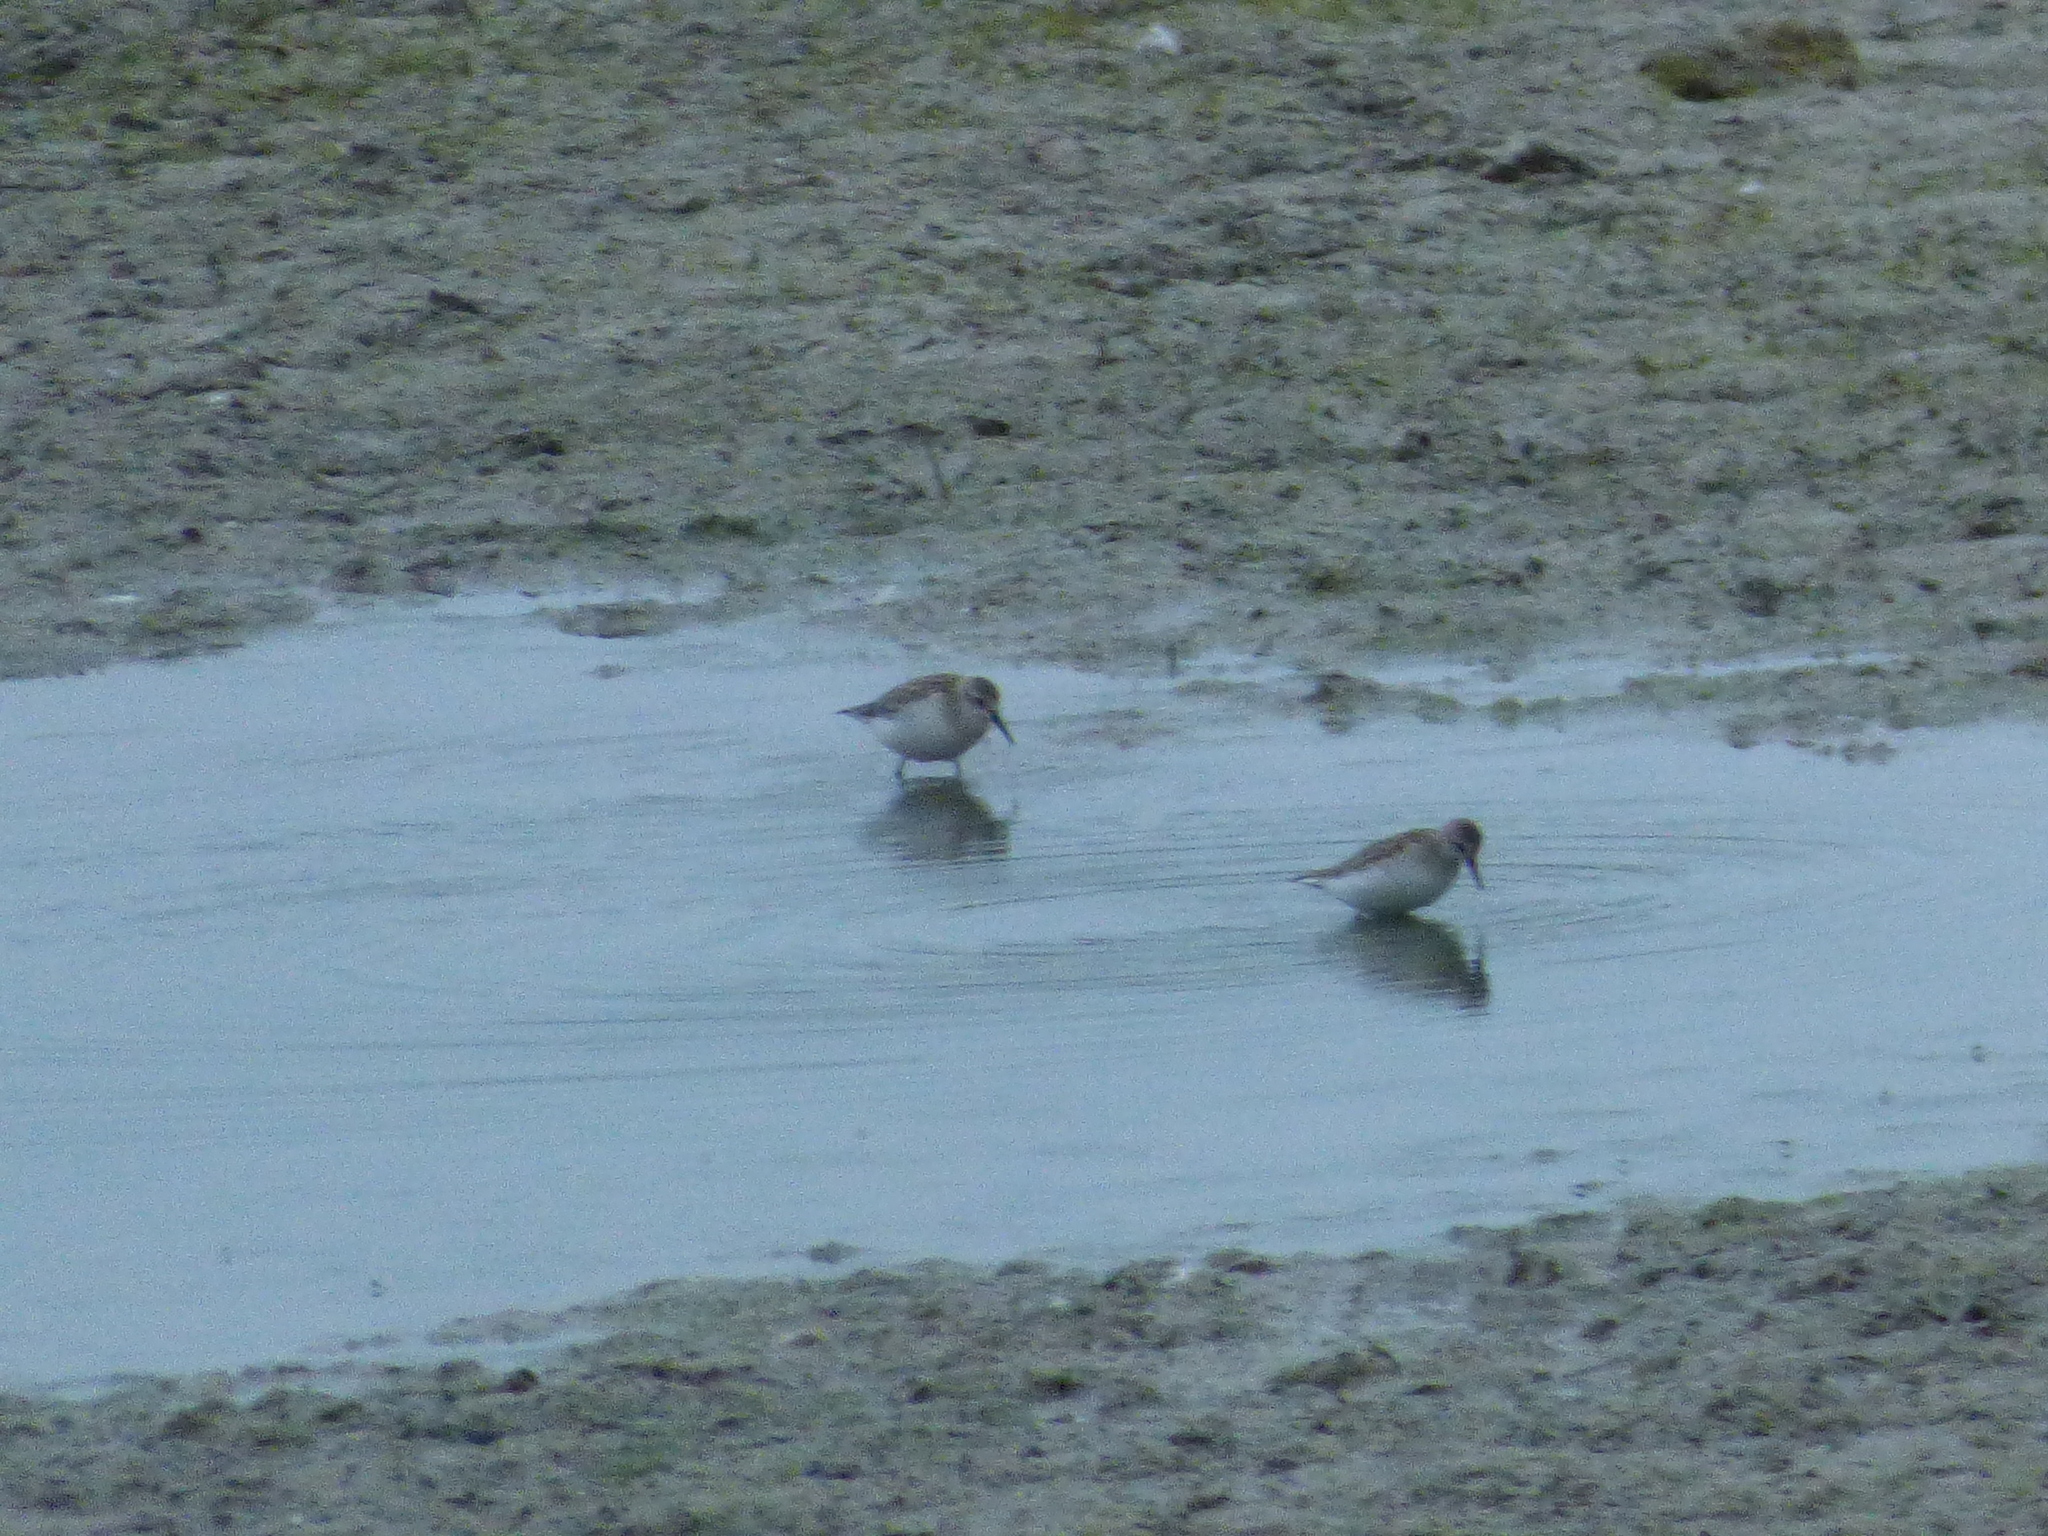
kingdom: Animalia
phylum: Chordata
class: Aves
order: Charadriiformes
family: Scolopacidae
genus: Calidris
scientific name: Calidris pusilla
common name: Semipalmated sandpiper
